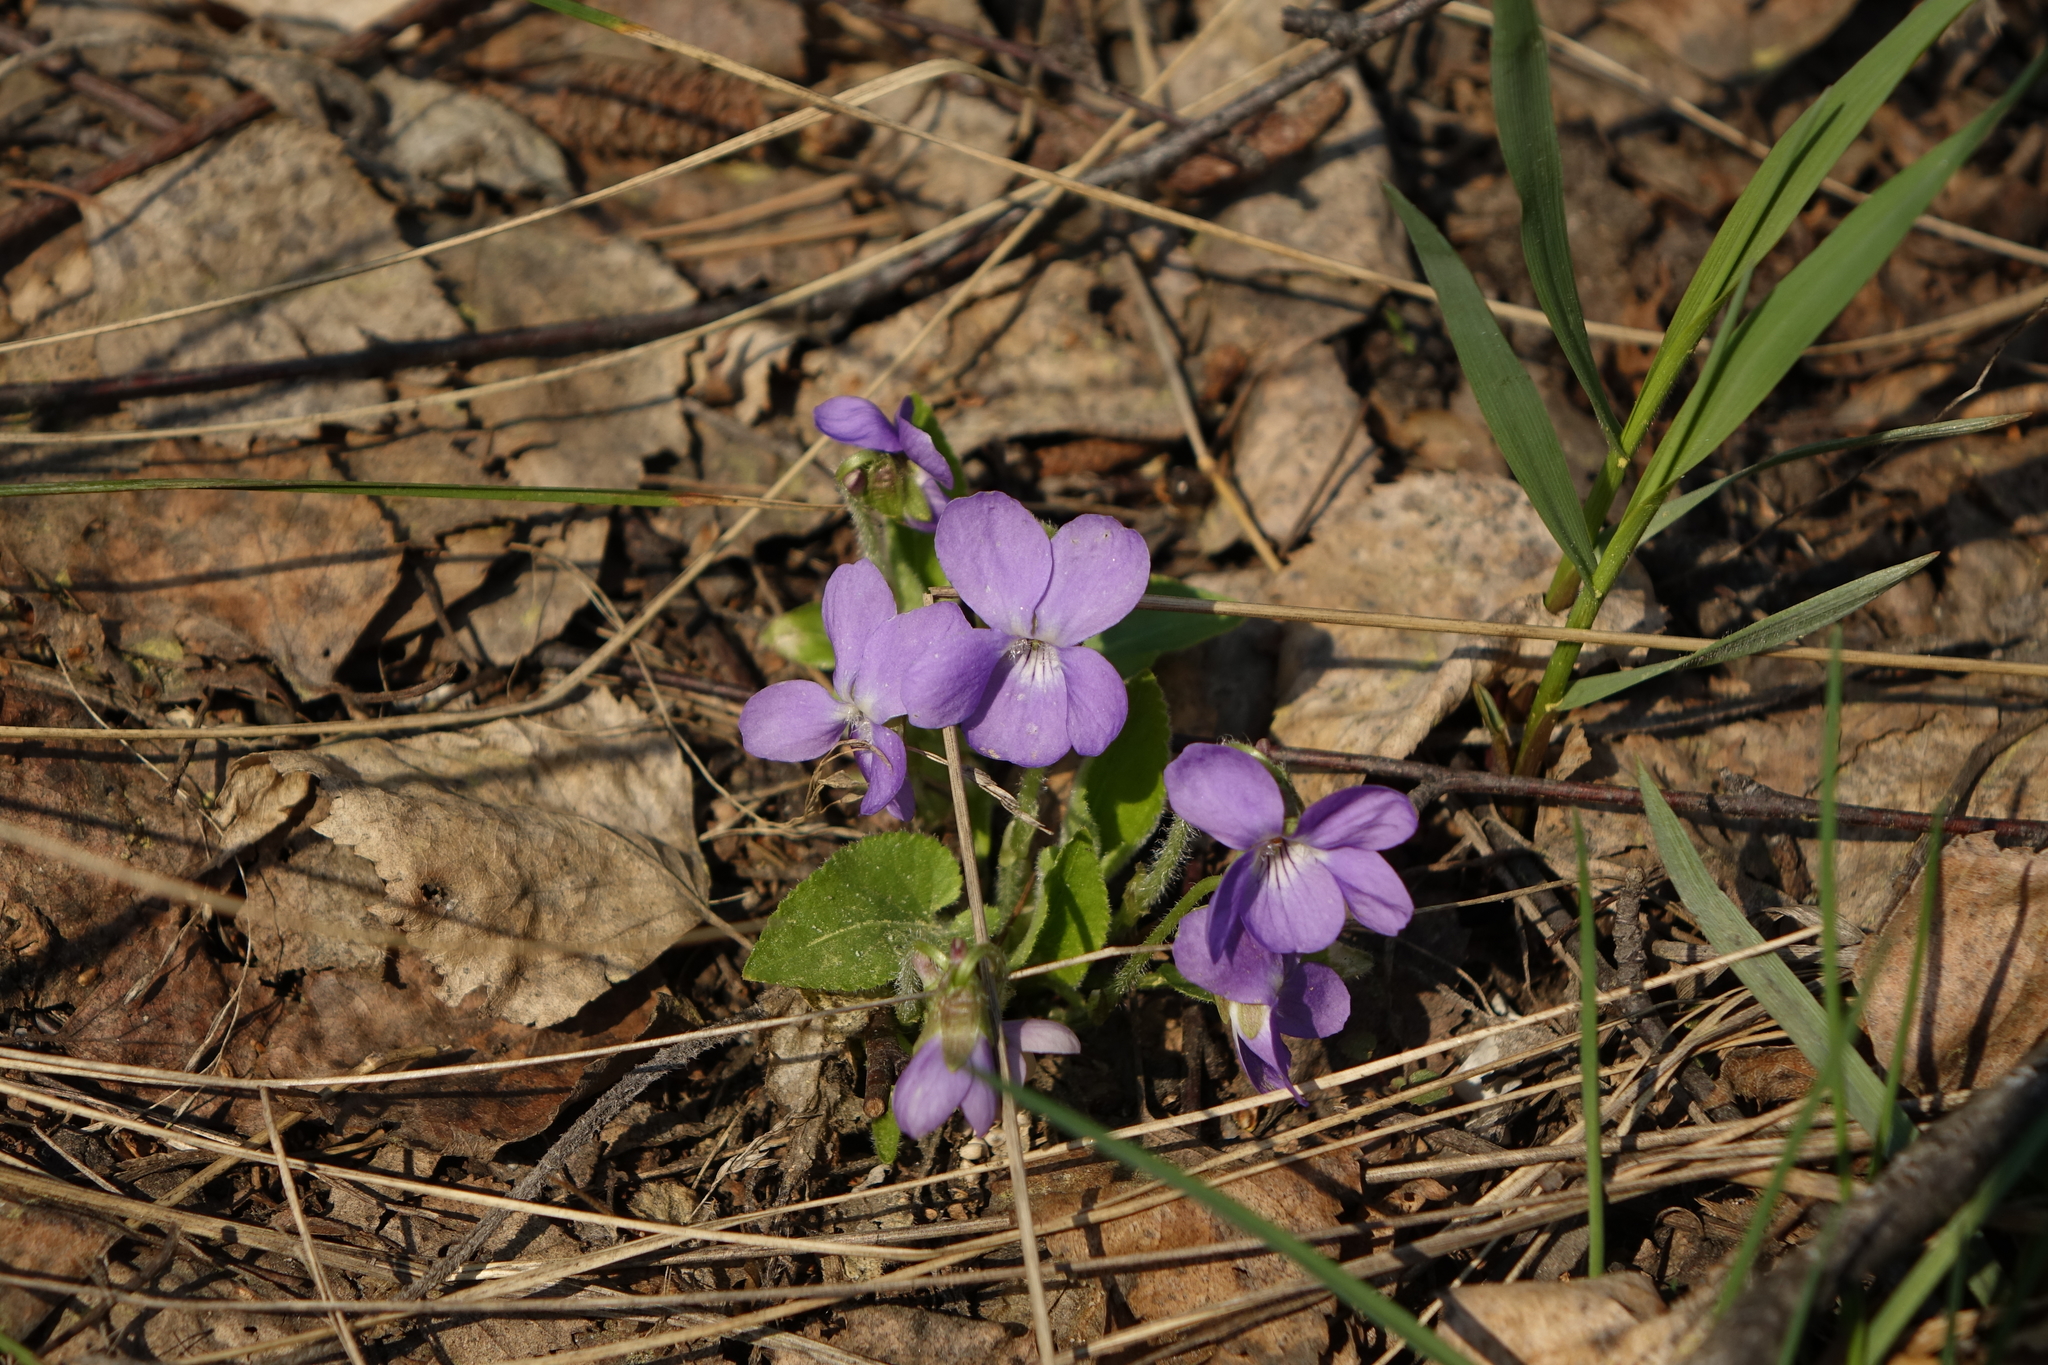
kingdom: Plantae
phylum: Tracheophyta
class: Magnoliopsida
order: Malpighiales
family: Violaceae
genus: Viola
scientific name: Viola hirta
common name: Hairy violet
